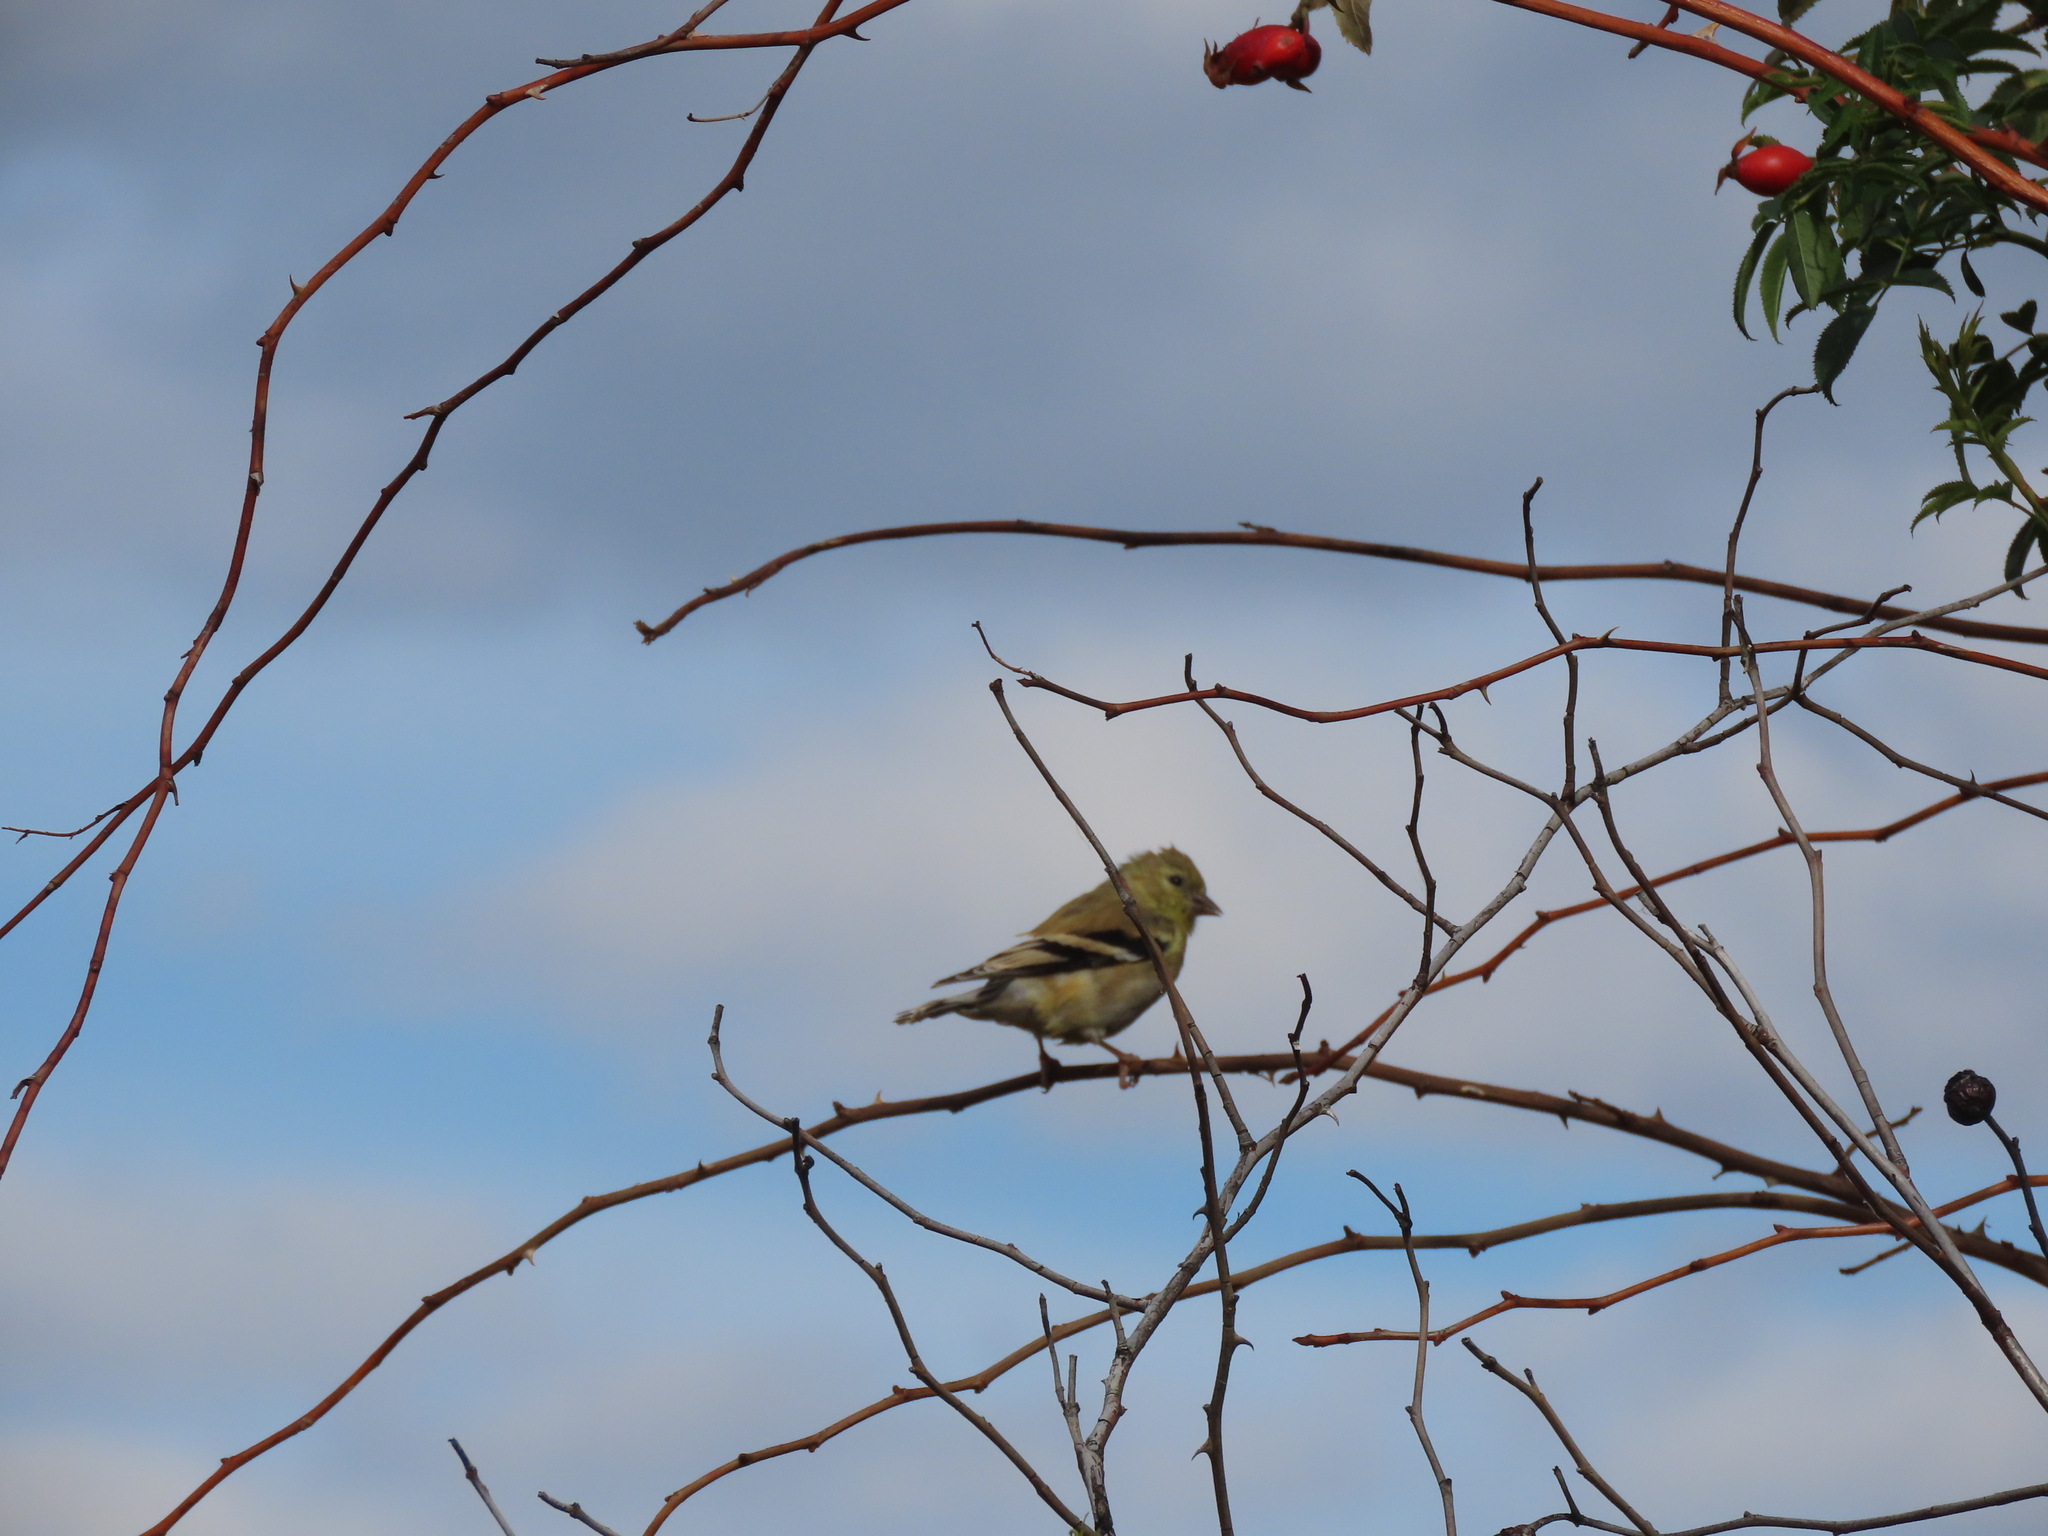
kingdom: Animalia
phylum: Chordata
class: Aves
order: Passeriformes
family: Fringillidae
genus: Spinus
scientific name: Spinus tristis
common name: American goldfinch
